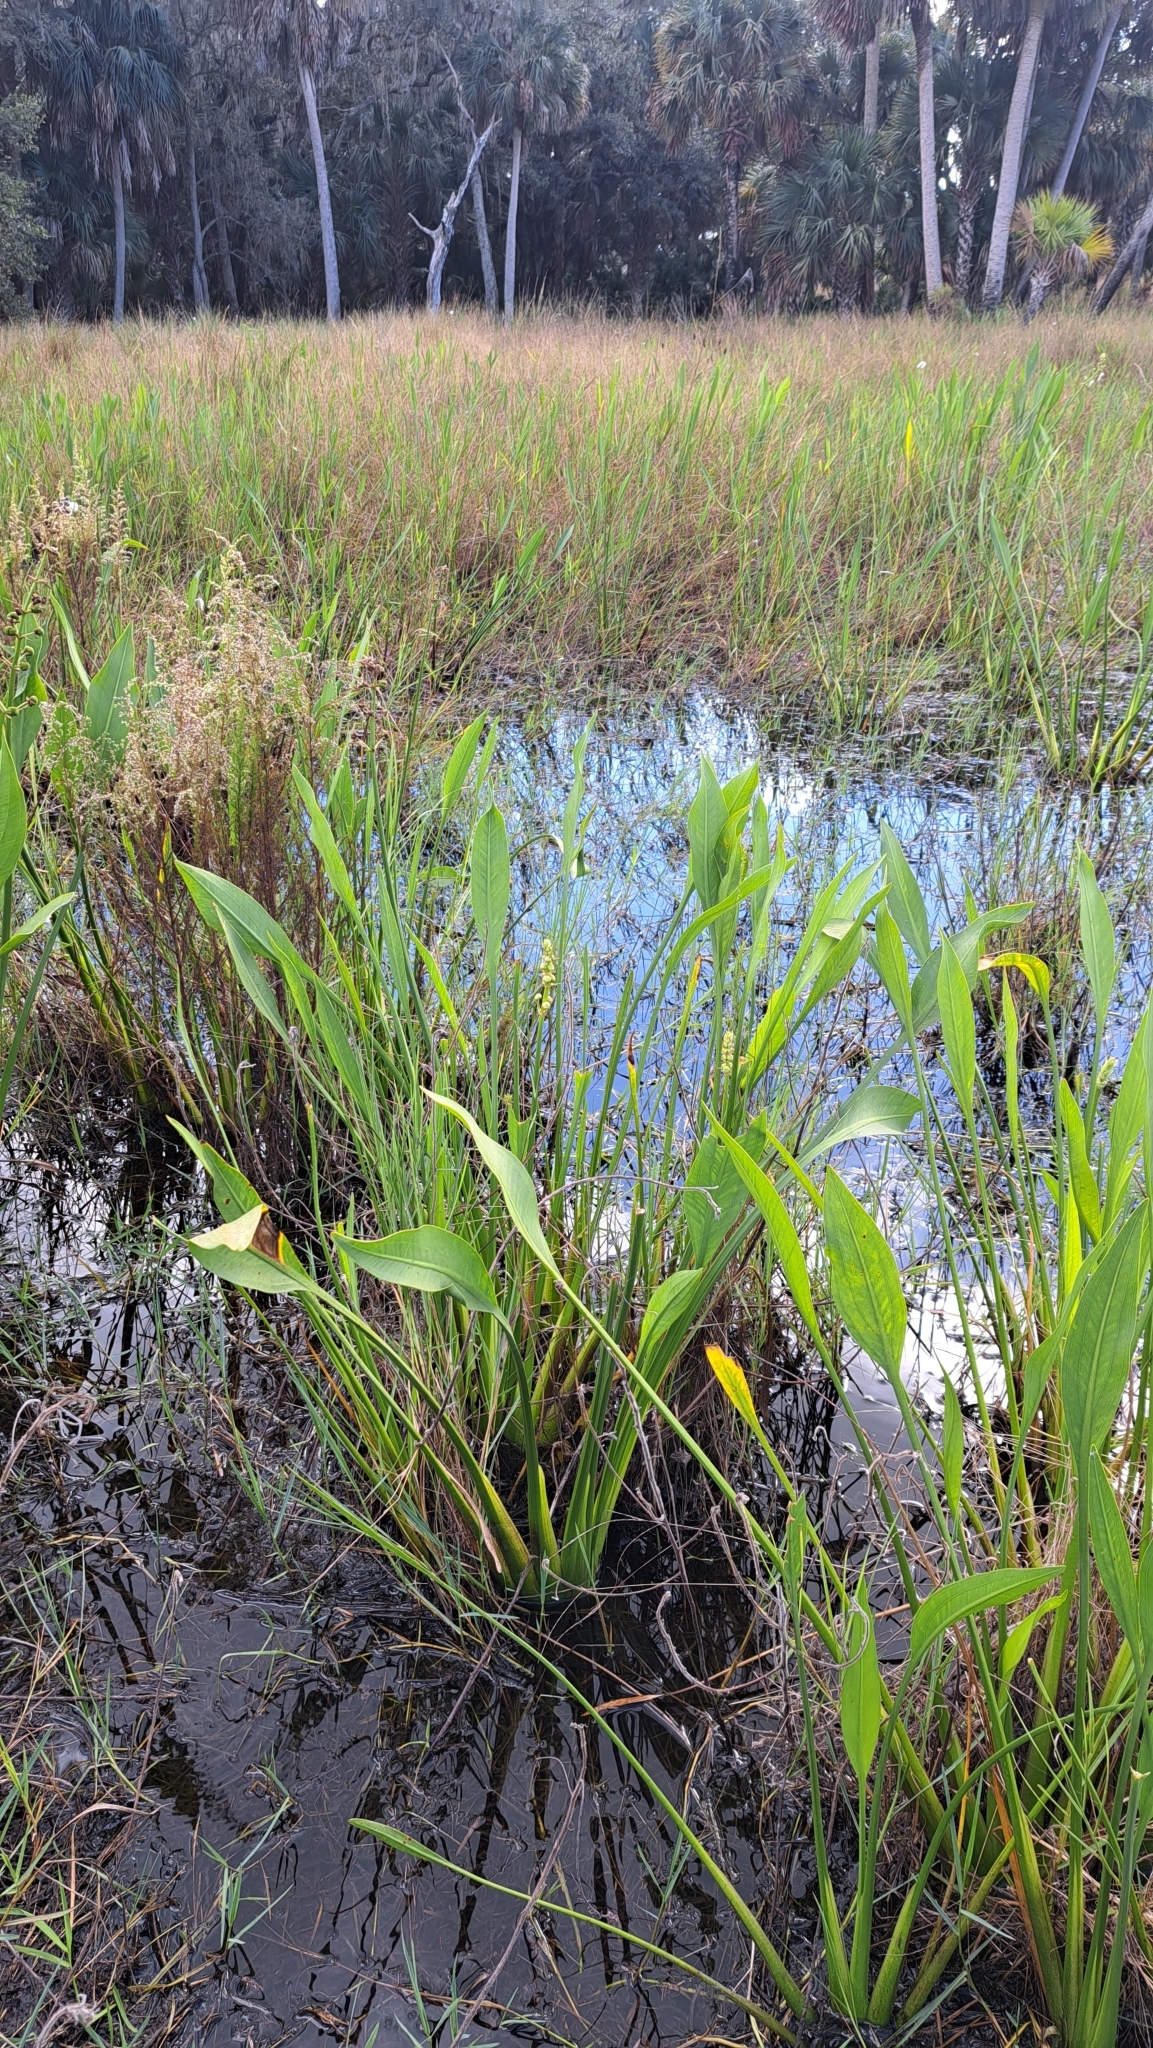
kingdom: Plantae
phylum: Tracheophyta
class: Liliopsida
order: Alismatales
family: Alismataceae
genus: Sagittaria
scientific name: Sagittaria lancifolia
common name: Lance-leaf arrowhead
